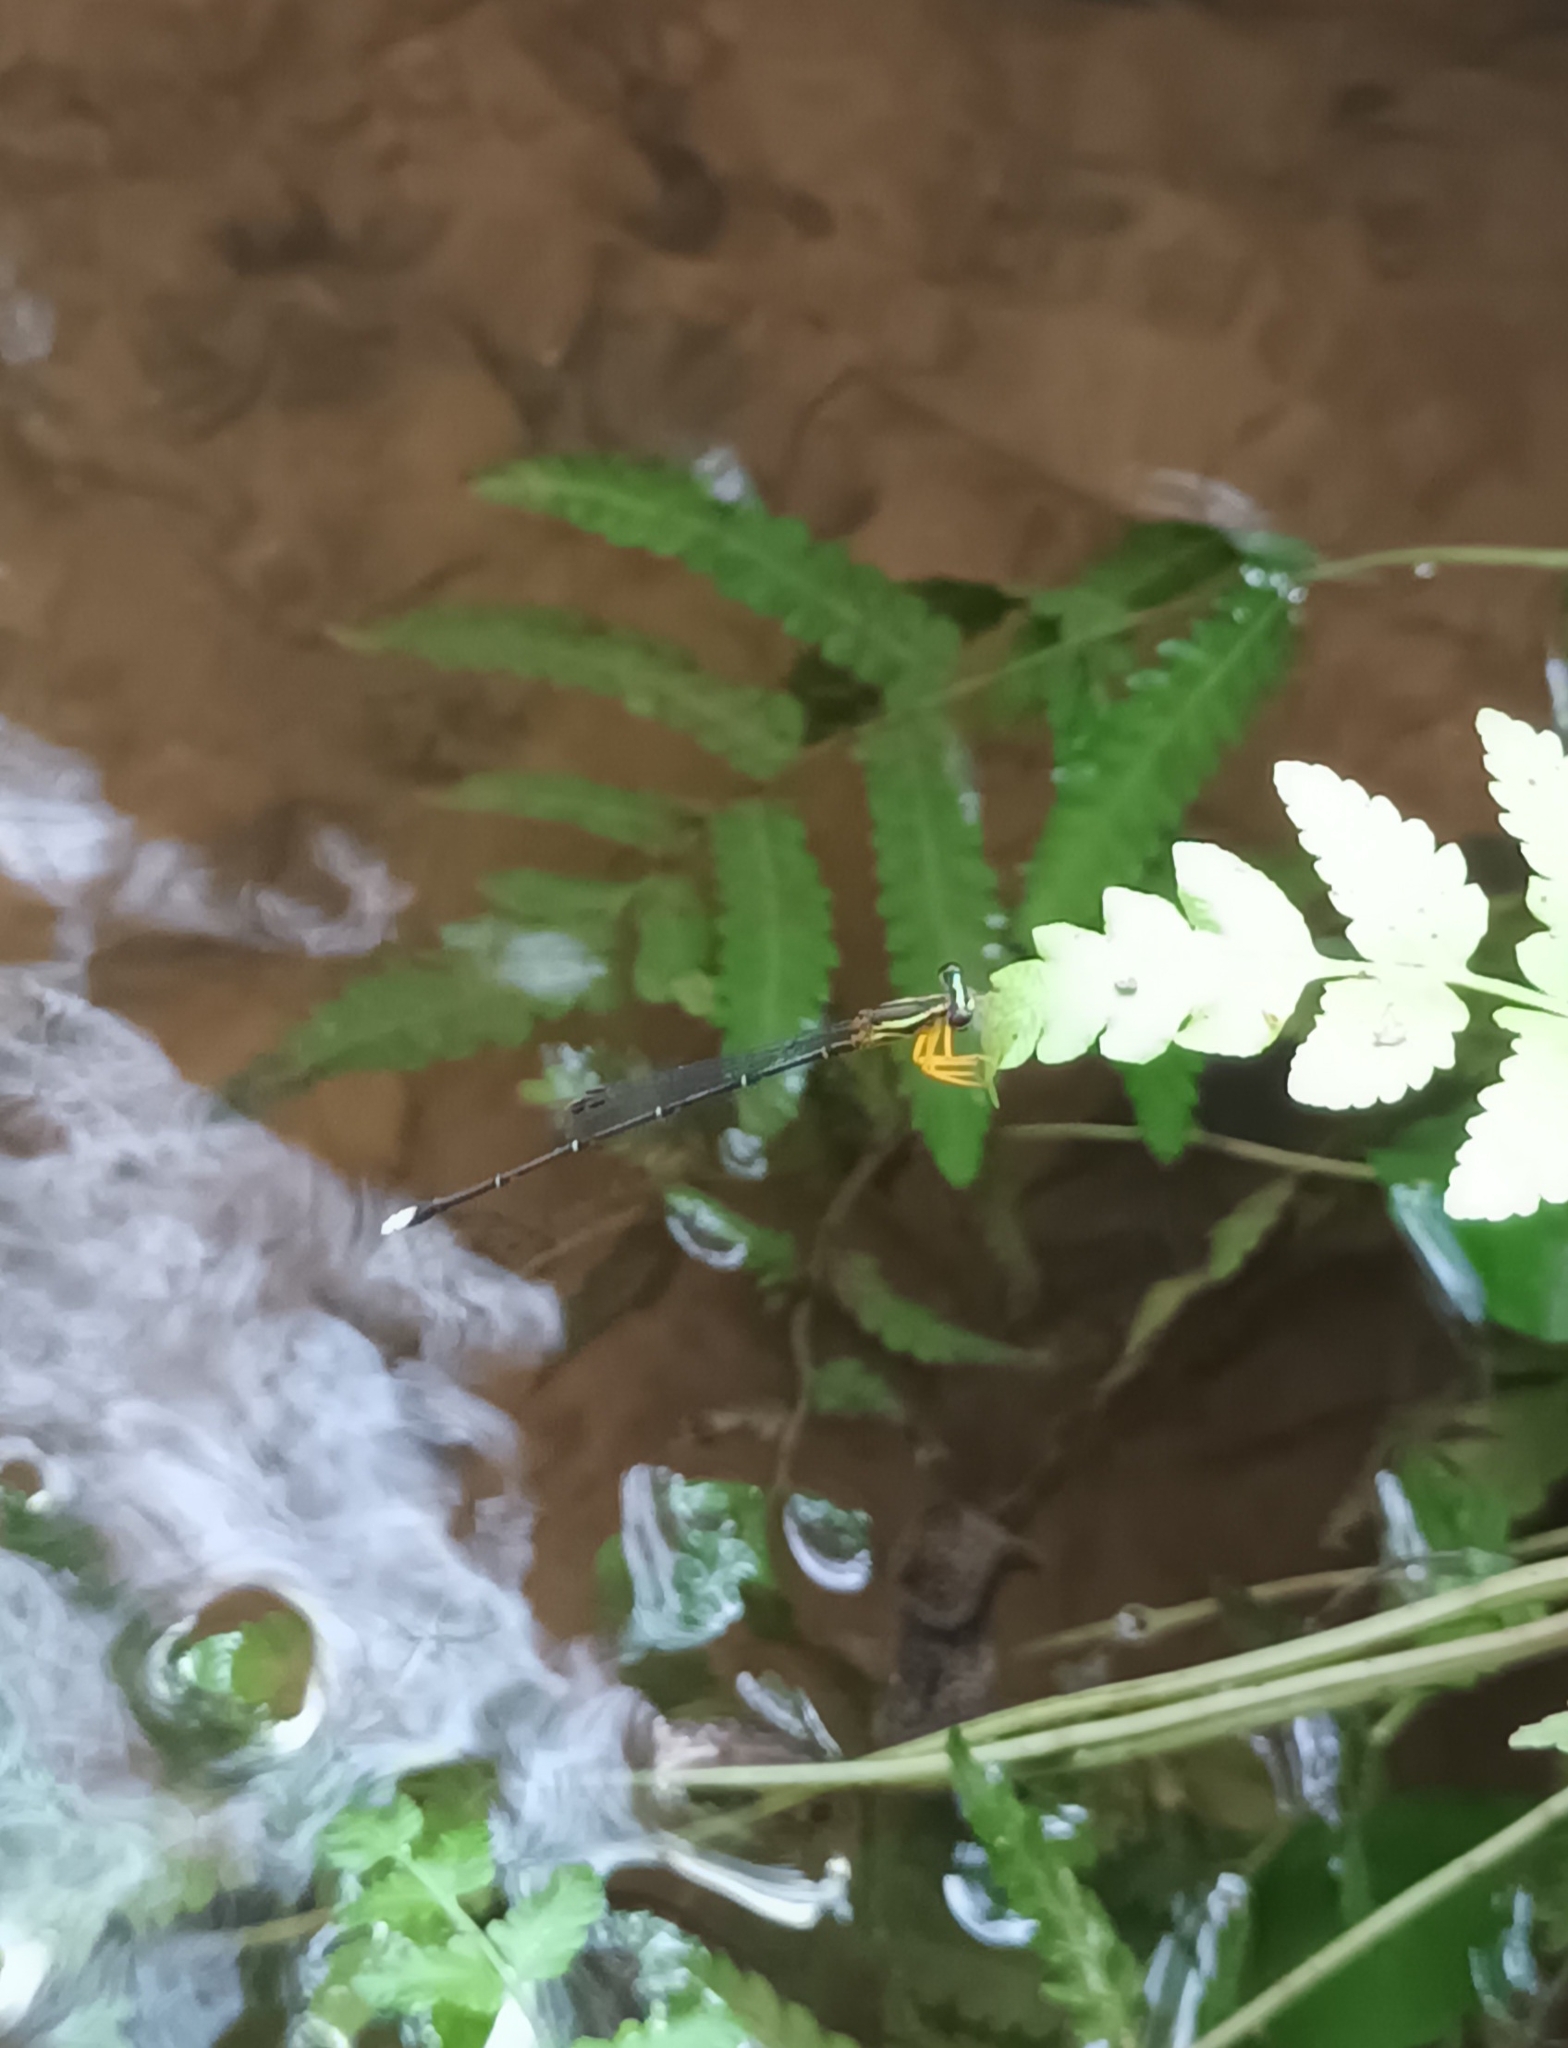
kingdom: Animalia
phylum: Arthropoda
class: Insecta
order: Odonata
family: Platycnemididae
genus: Copera
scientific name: Copera marginipes
